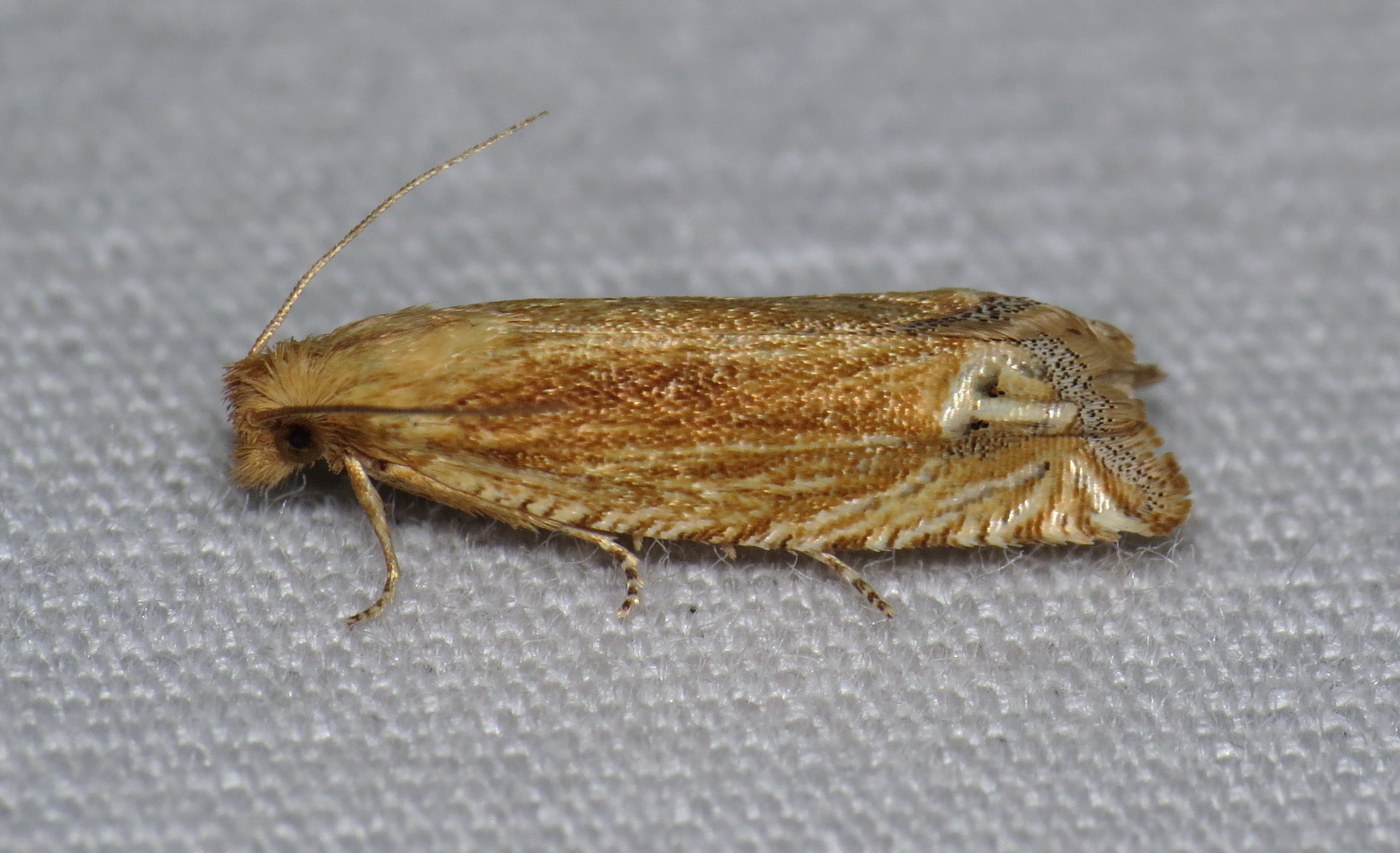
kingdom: Animalia
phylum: Arthropoda
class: Insecta
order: Lepidoptera
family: Tortricidae
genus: Pelochrista
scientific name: Pelochrista cataclystiana
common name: Goldenrod pelochrista moth
